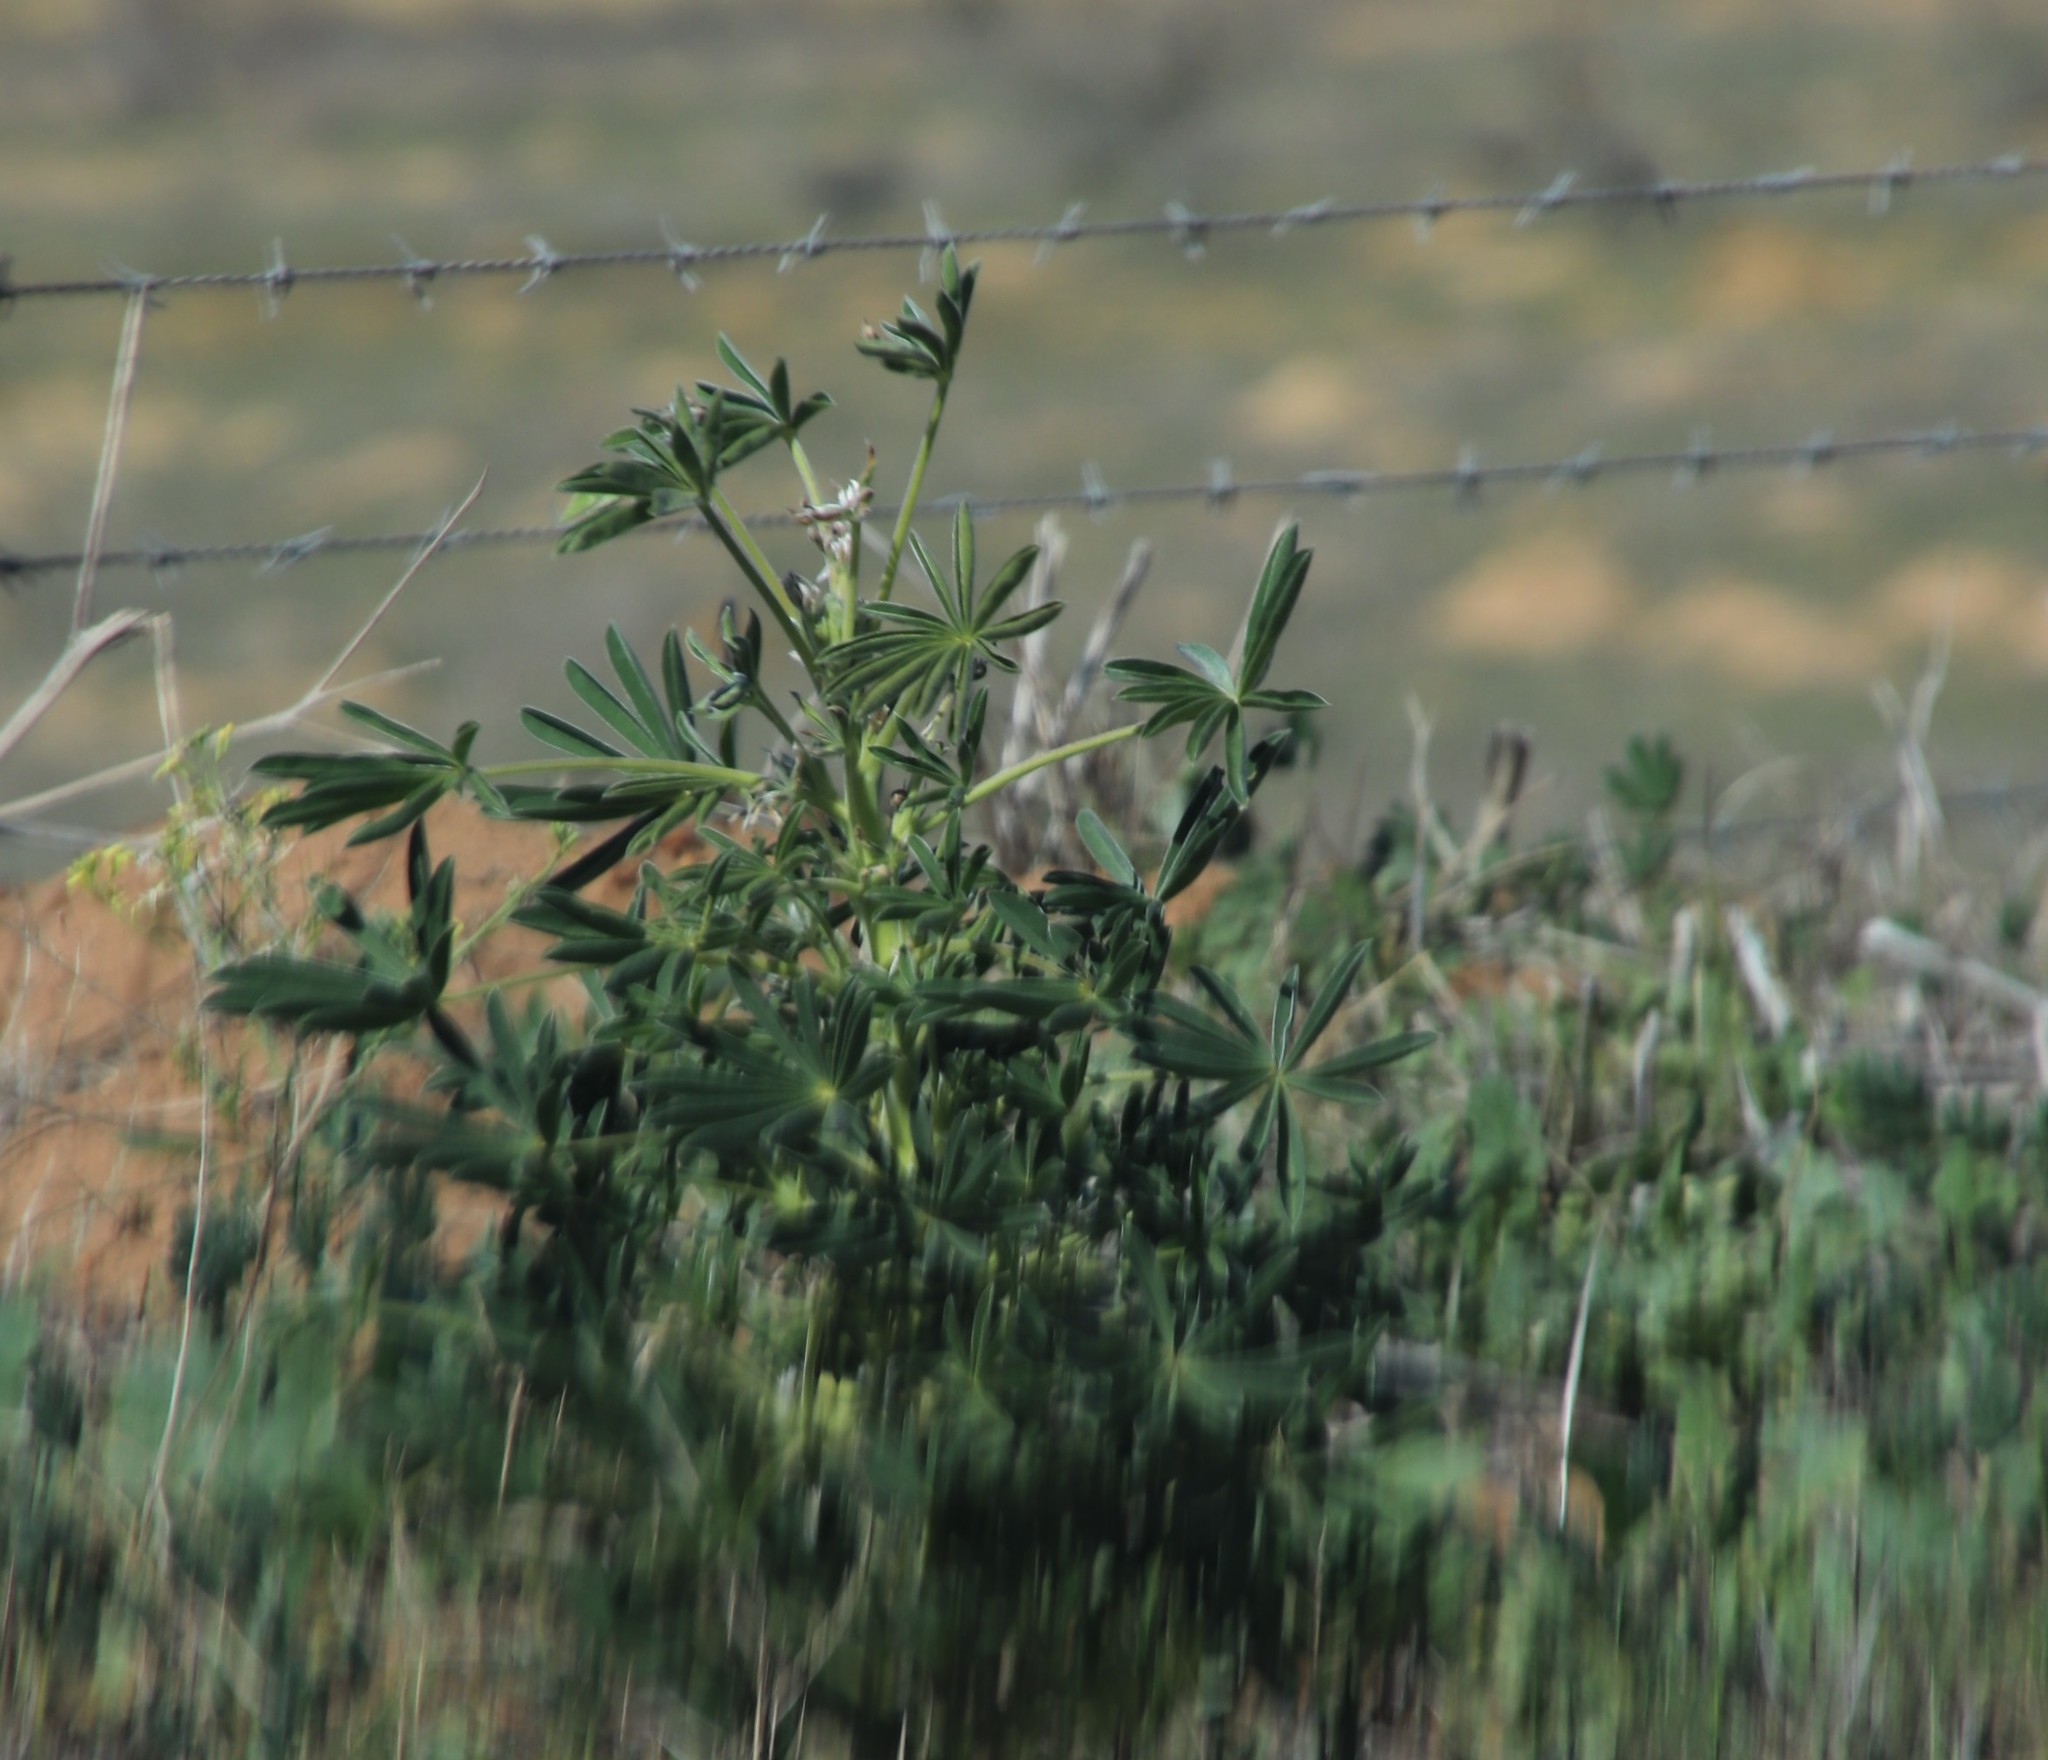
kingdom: Plantae
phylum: Tracheophyta
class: Magnoliopsida
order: Fabales
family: Fabaceae
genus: Lupinus
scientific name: Lupinus cosentinii
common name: Hairy blue lupin
